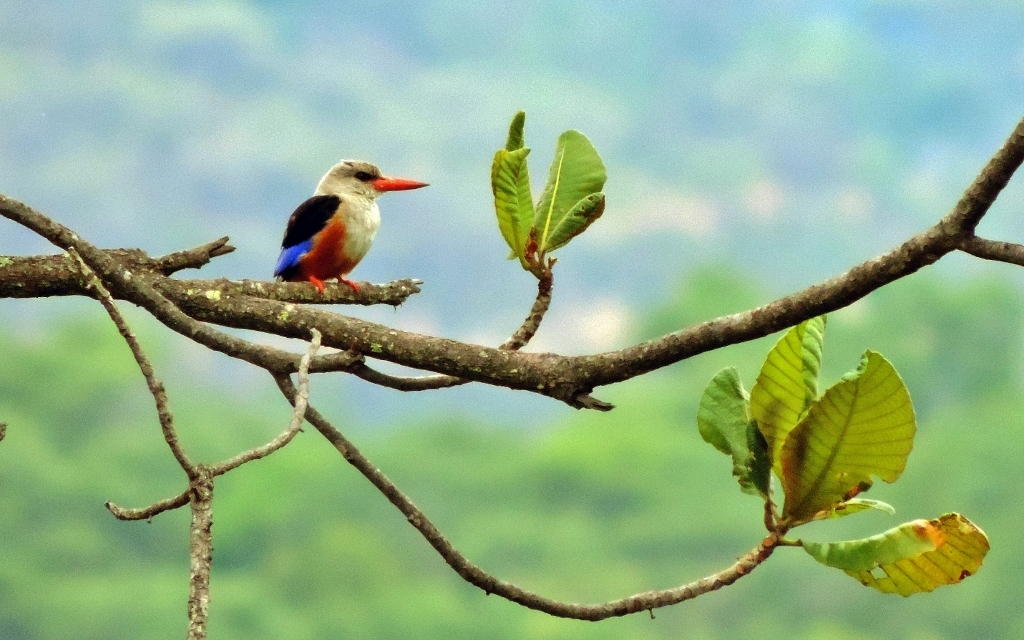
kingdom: Animalia
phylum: Chordata
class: Aves
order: Coraciiformes
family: Alcedinidae
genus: Halcyon
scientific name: Halcyon leucocephala
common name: Grey-headed kingfisher
